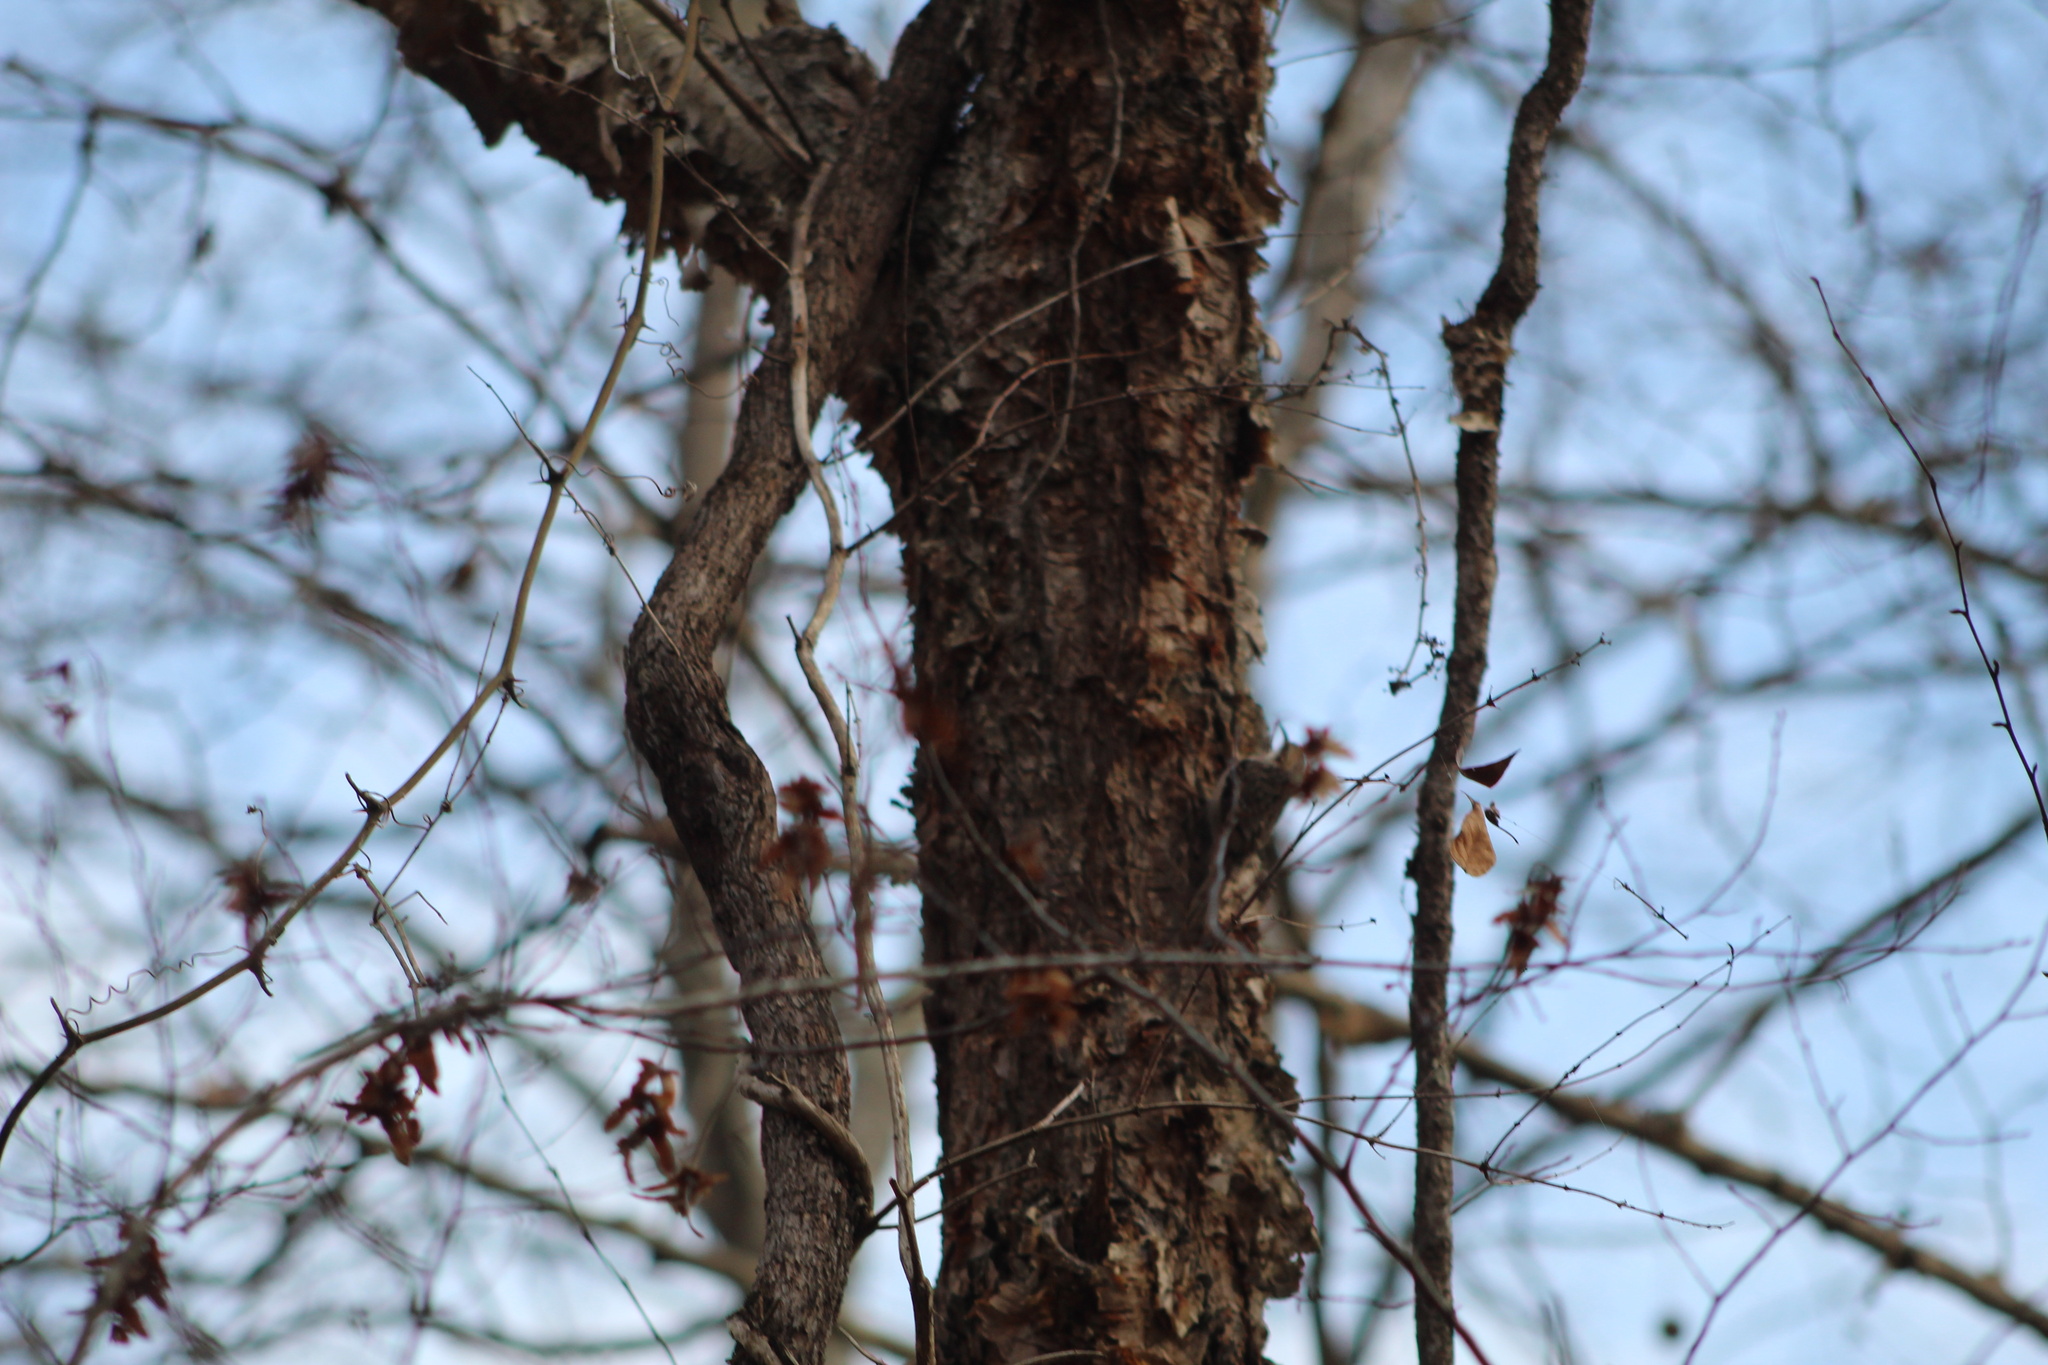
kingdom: Animalia
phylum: Chordata
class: Aves
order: Passeriformes
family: Certhiidae
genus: Certhia
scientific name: Certhia americana
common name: Brown creeper
